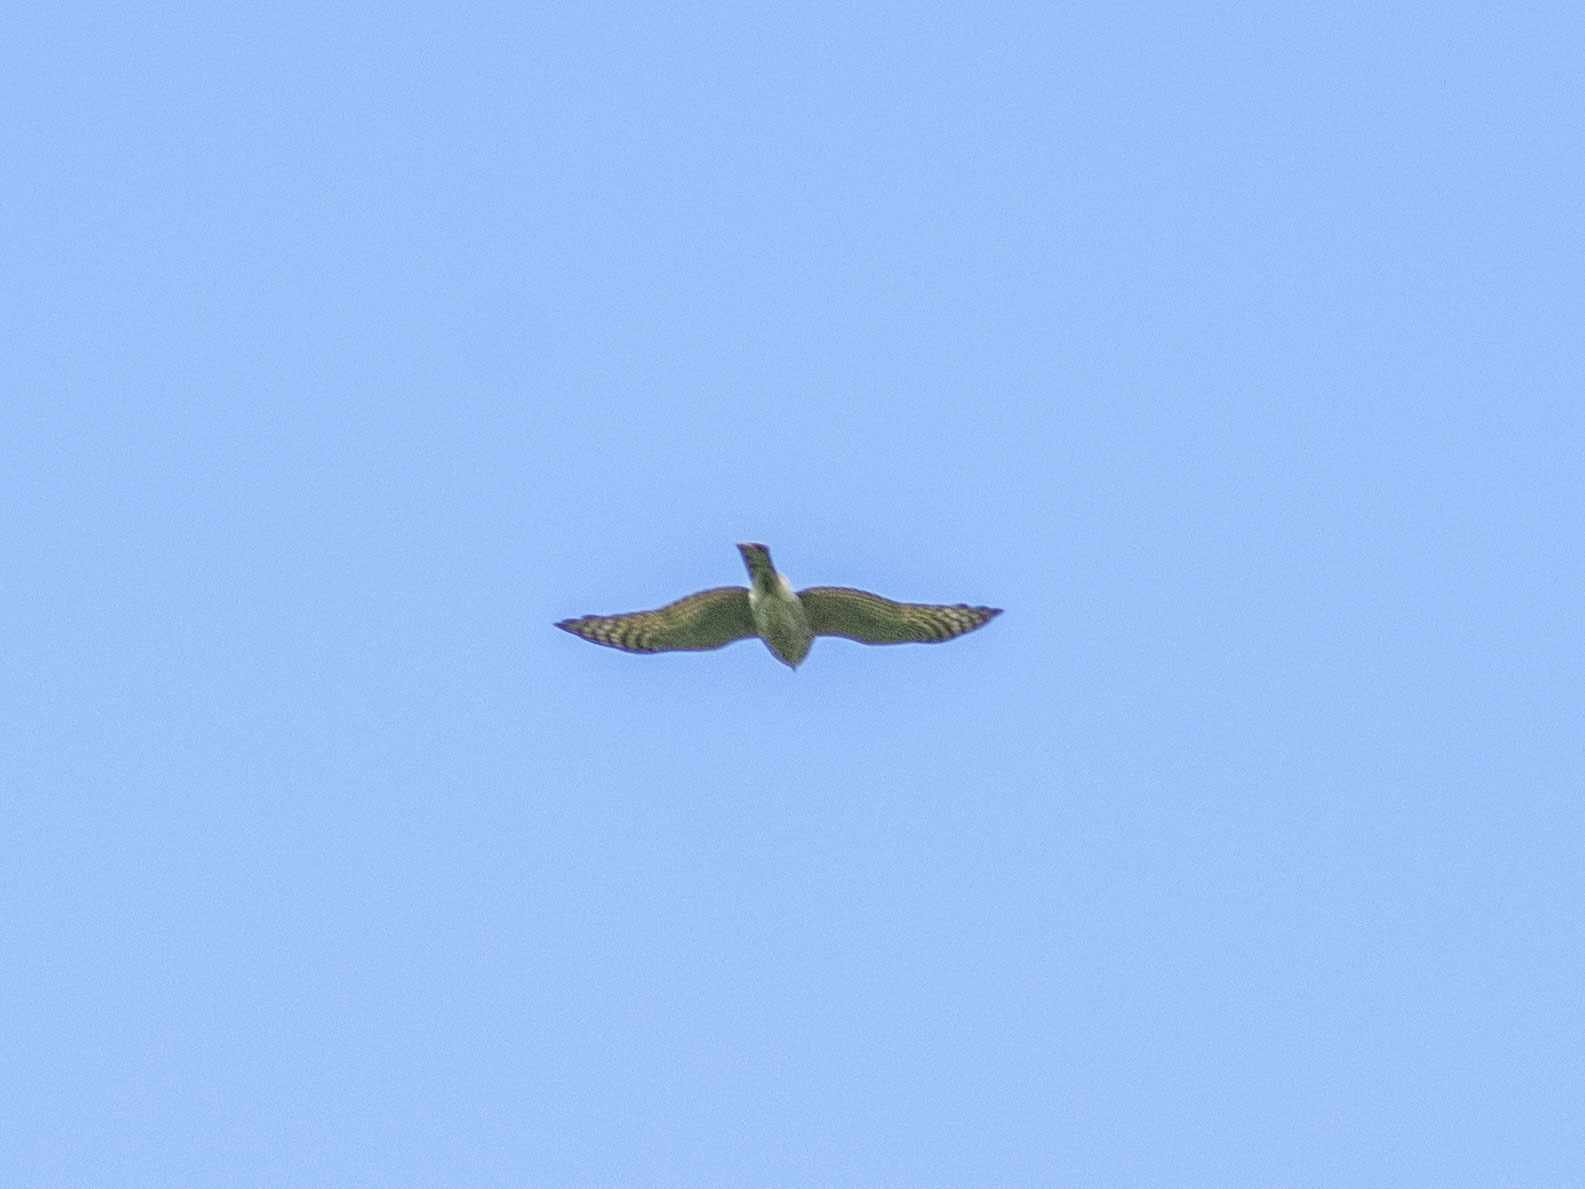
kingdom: Animalia
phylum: Chordata
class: Aves
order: Accipitriformes
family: Accipitridae
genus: Accipiter
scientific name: Accipiter nisus
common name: Eurasian sparrowhawk
